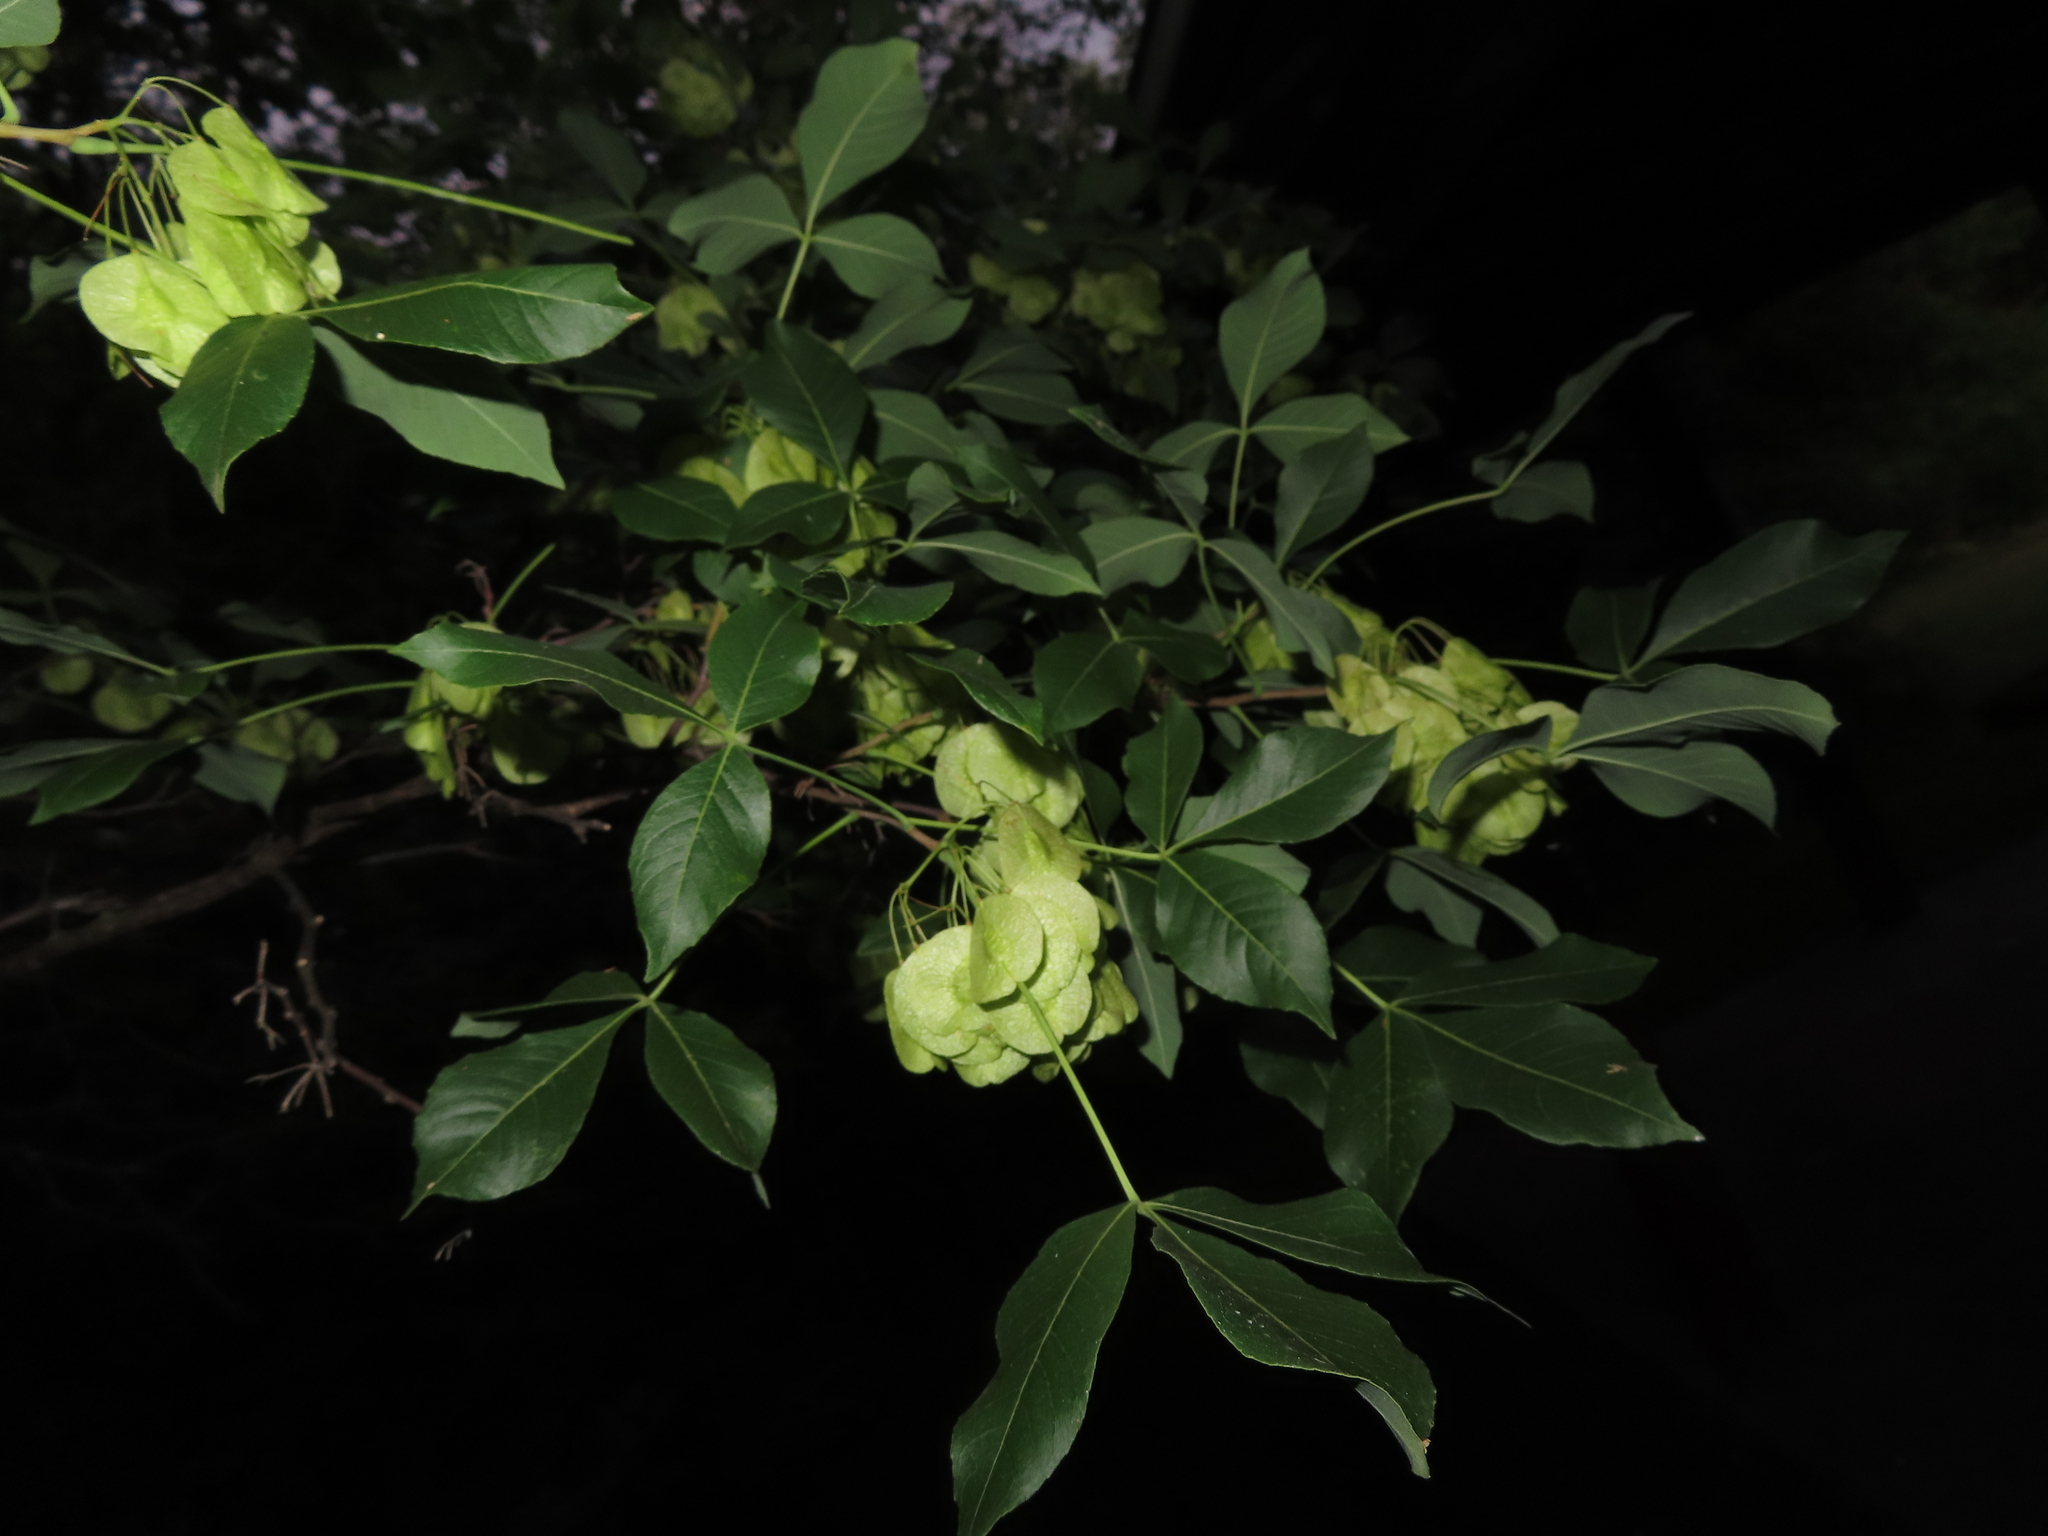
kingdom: Plantae
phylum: Tracheophyta
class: Magnoliopsida
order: Sapindales
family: Rutaceae
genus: Ptelea
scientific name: Ptelea trifoliata
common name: Common hop-tree
